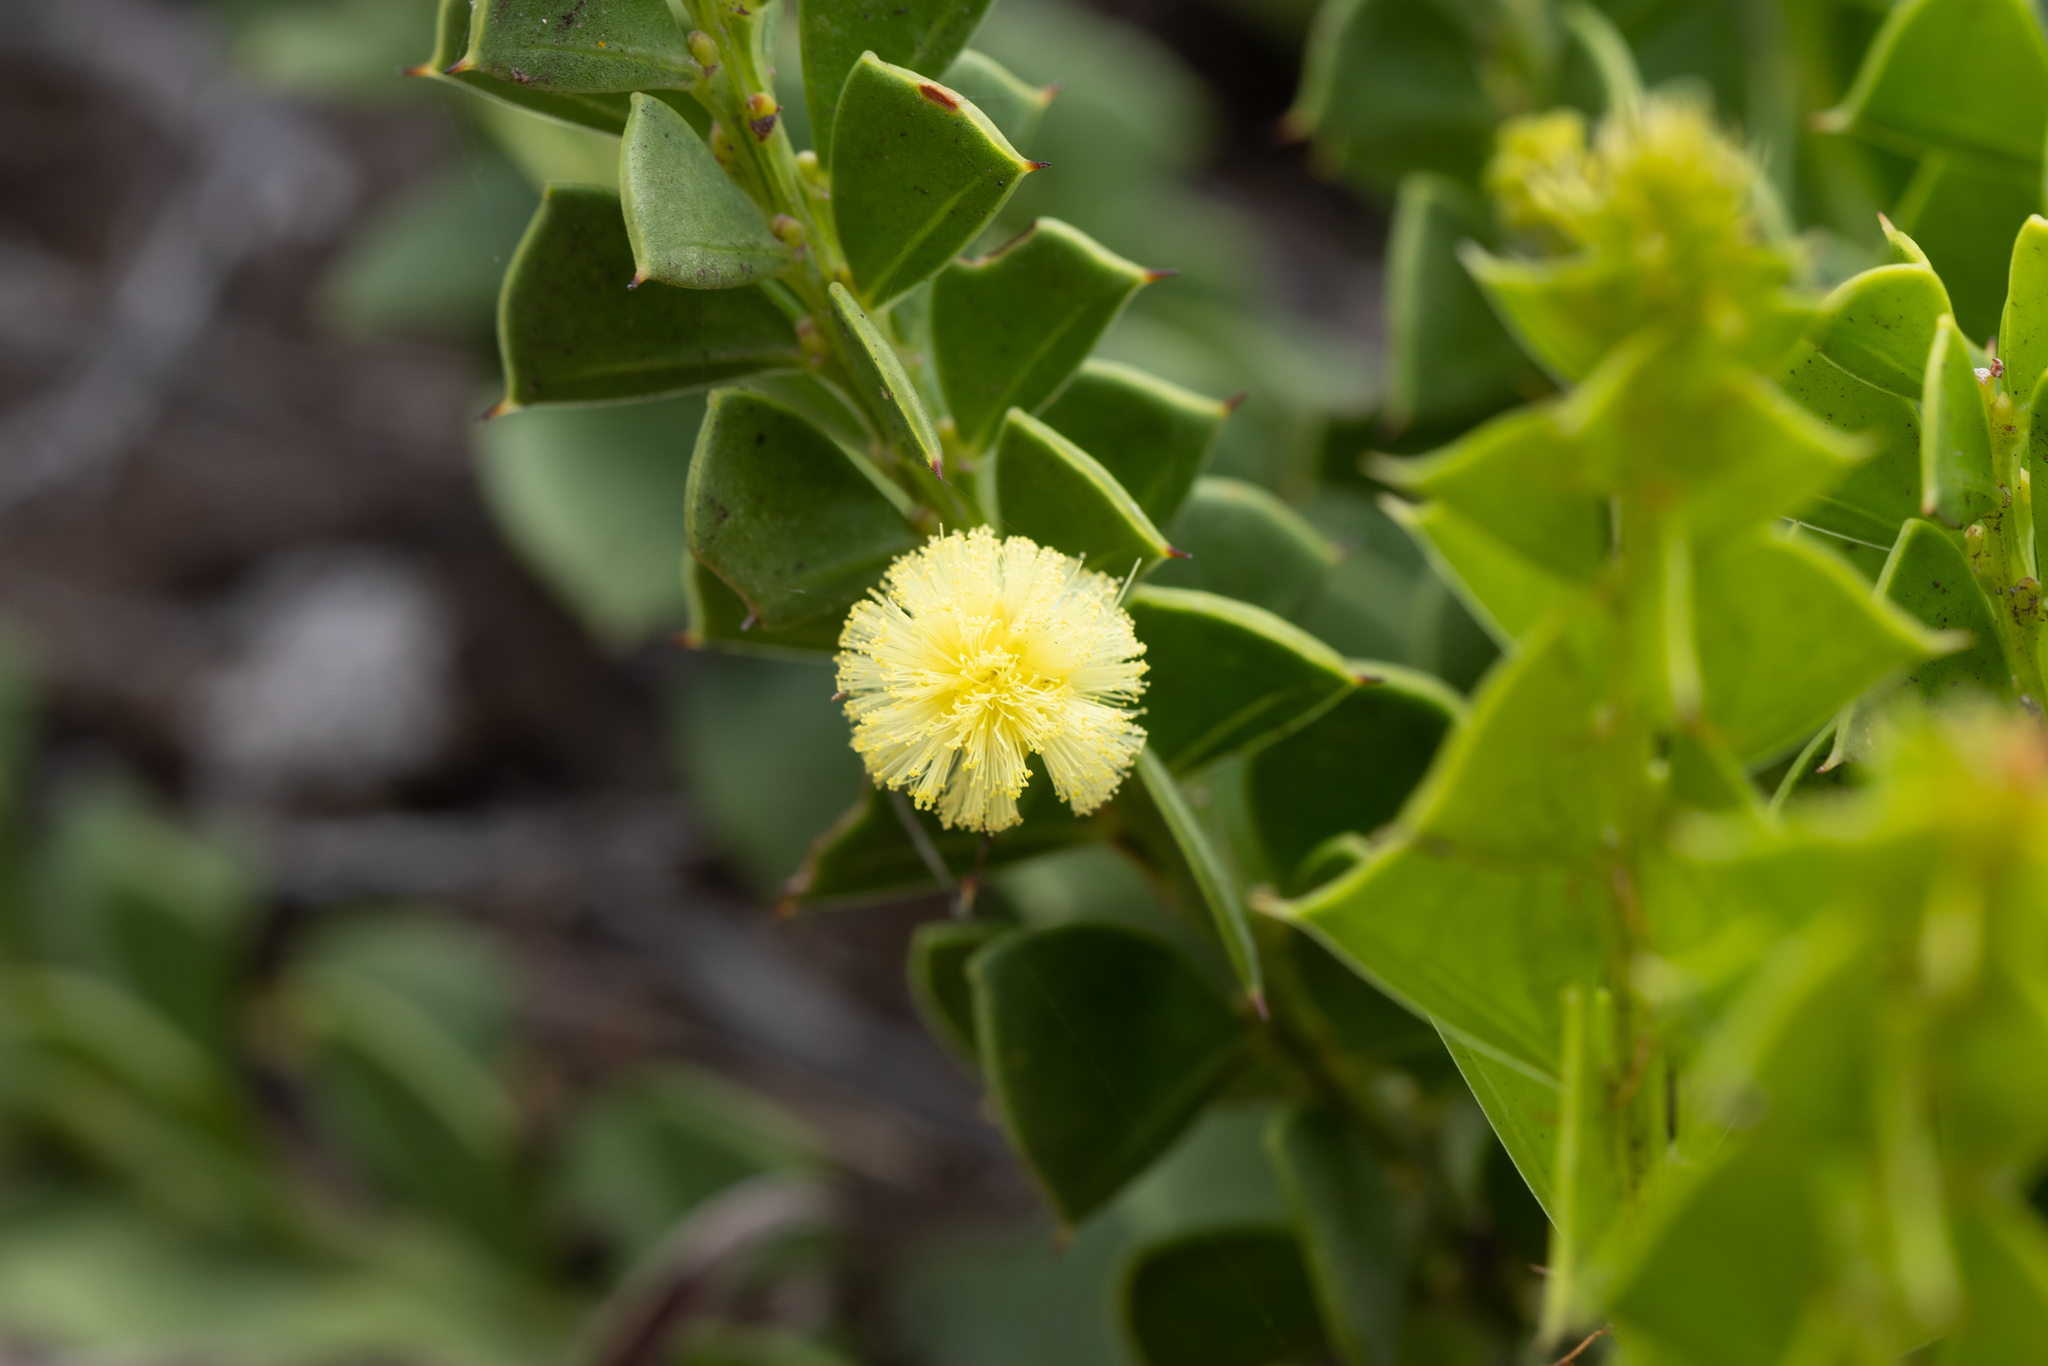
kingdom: Plantae
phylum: Tracheophyta
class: Magnoliopsida
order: Fabales
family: Fabaceae
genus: Acacia
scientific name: Acacia trapezoidea
